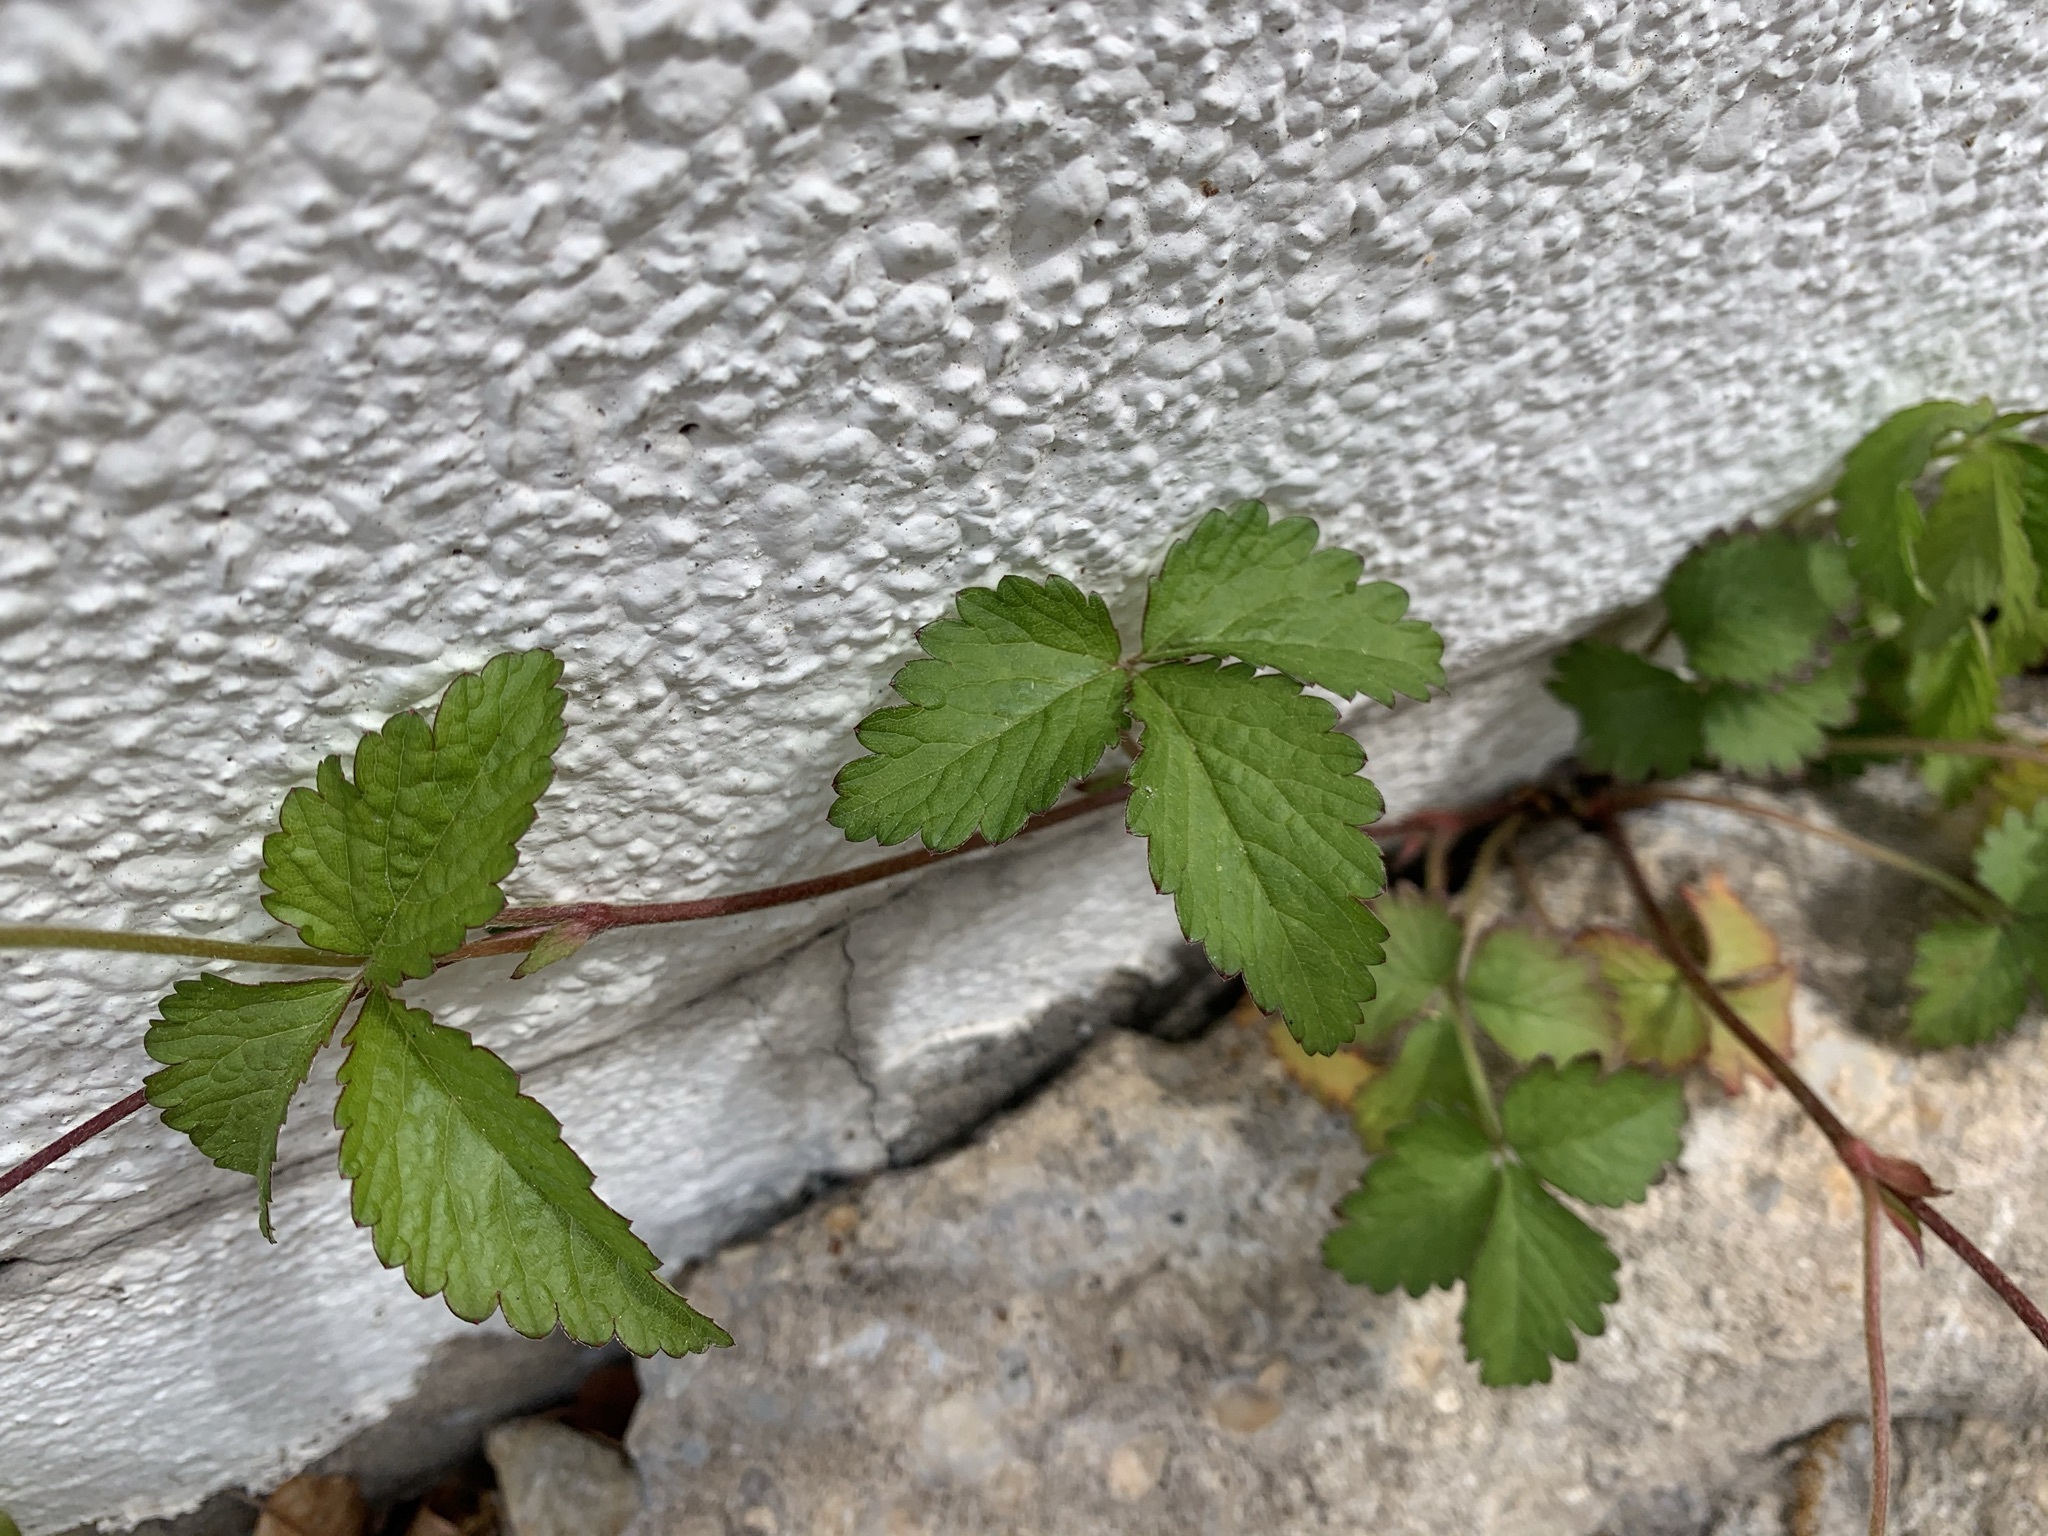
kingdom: Plantae
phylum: Tracheophyta
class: Magnoliopsida
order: Rosales
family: Rosaceae
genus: Potentilla
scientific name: Potentilla indica
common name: Yellow-flowered strawberry
